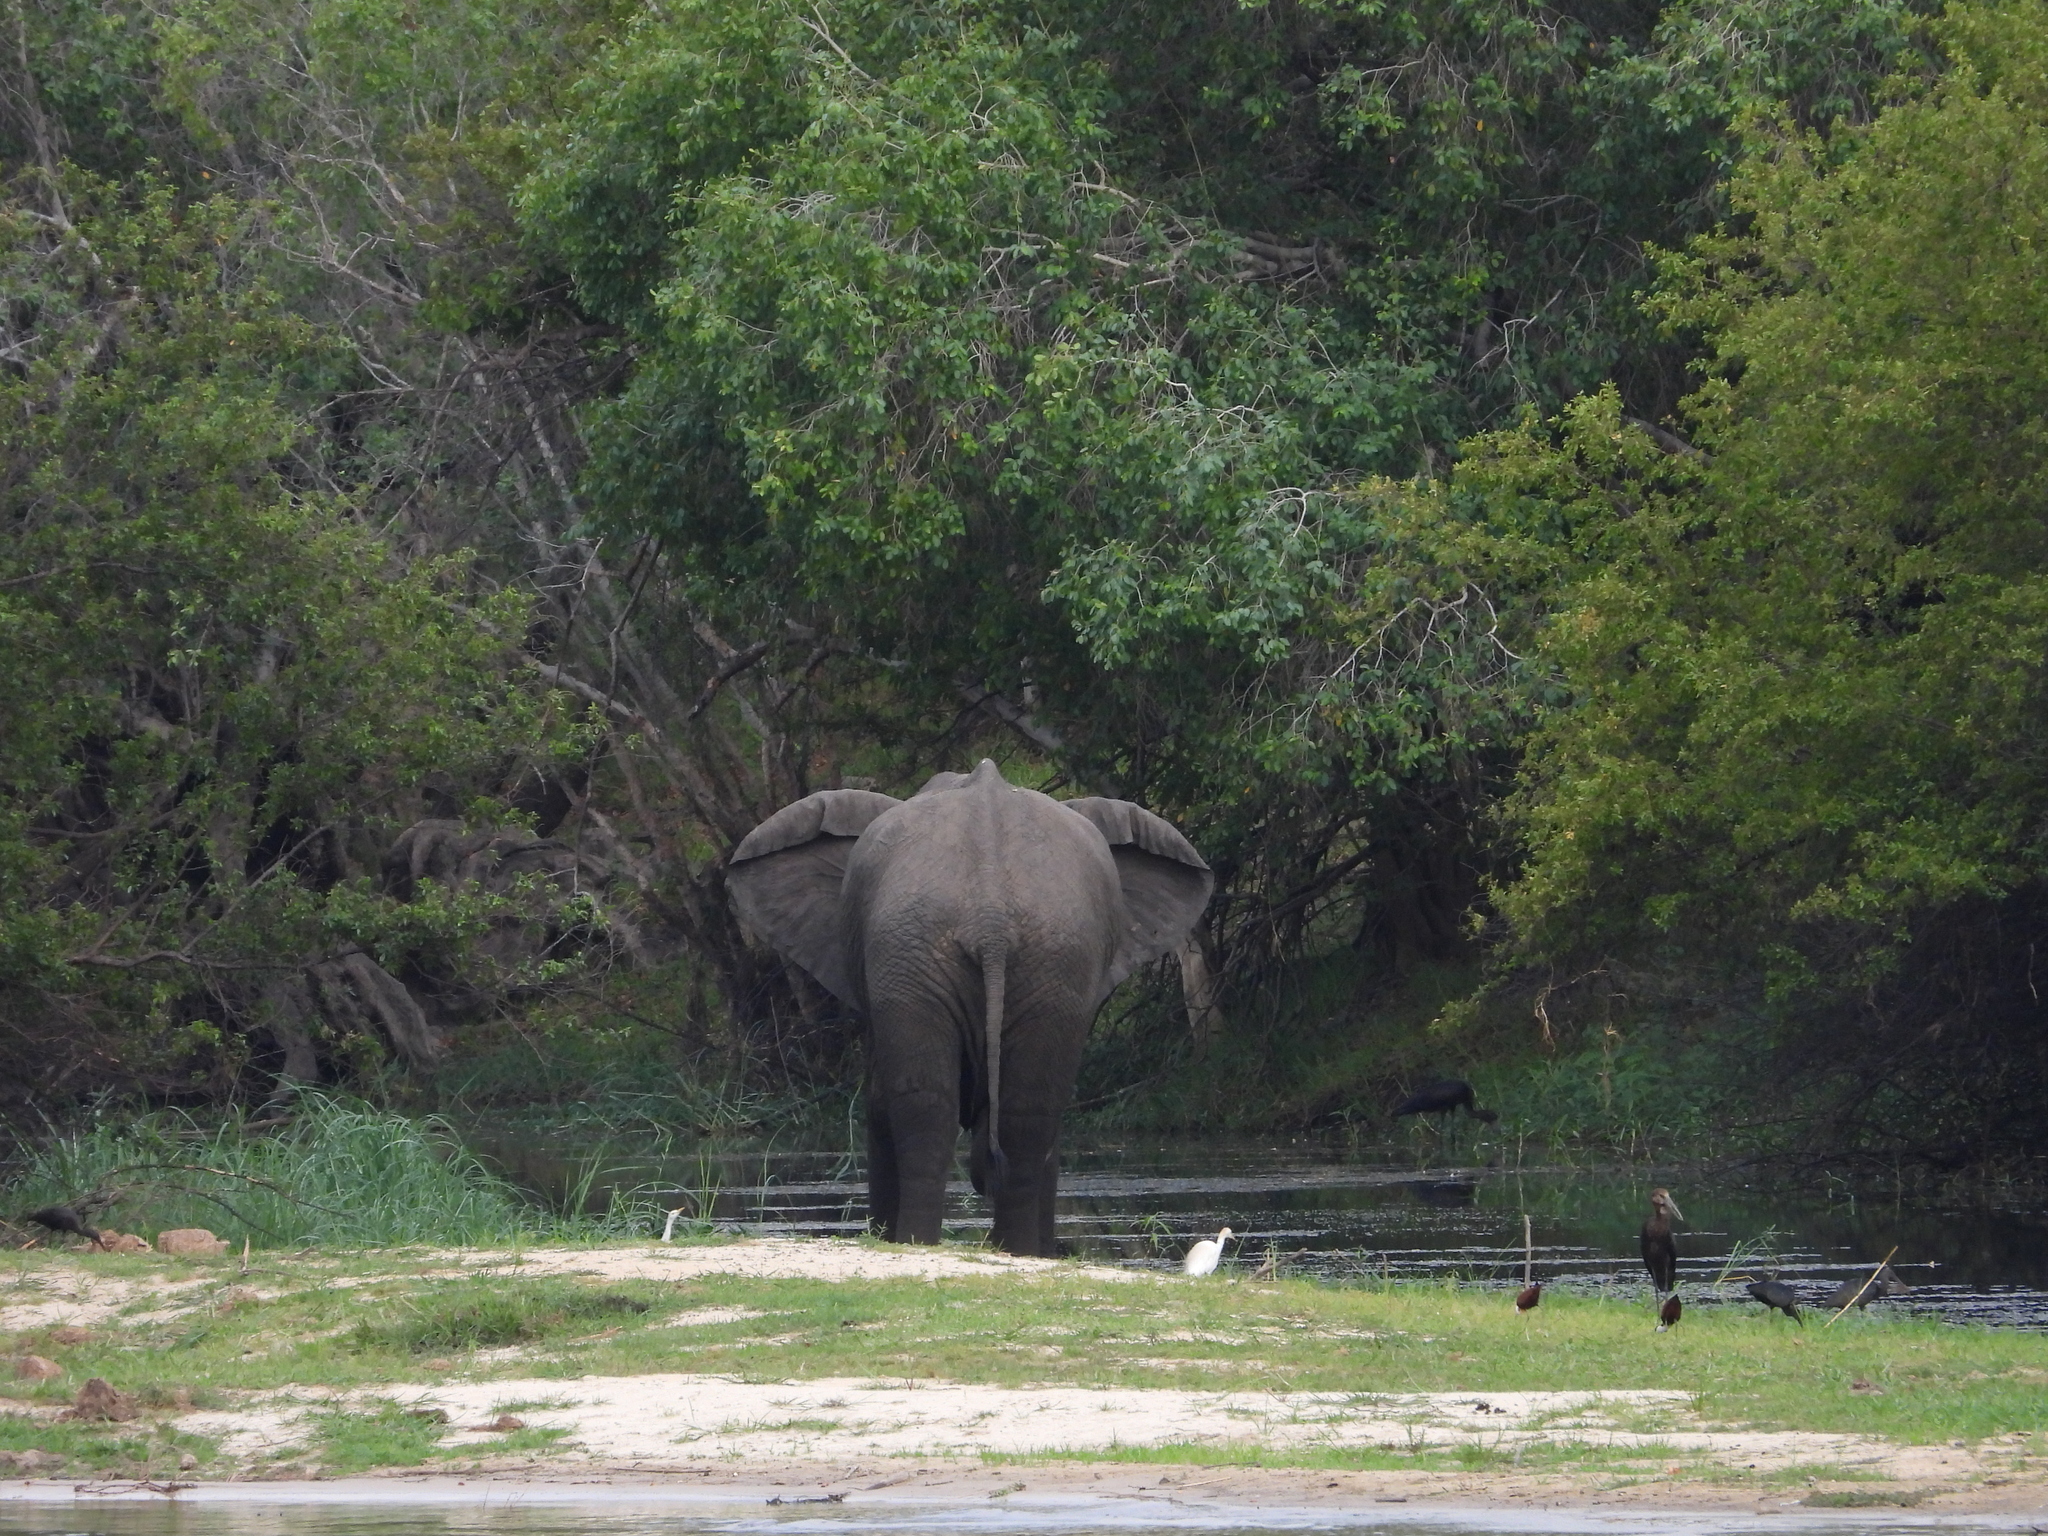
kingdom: Animalia
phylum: Chordata
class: Mammalia
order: Proboscidea
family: Elephantidae
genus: Loxodonta
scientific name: Loxodonta africana
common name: African elephant
